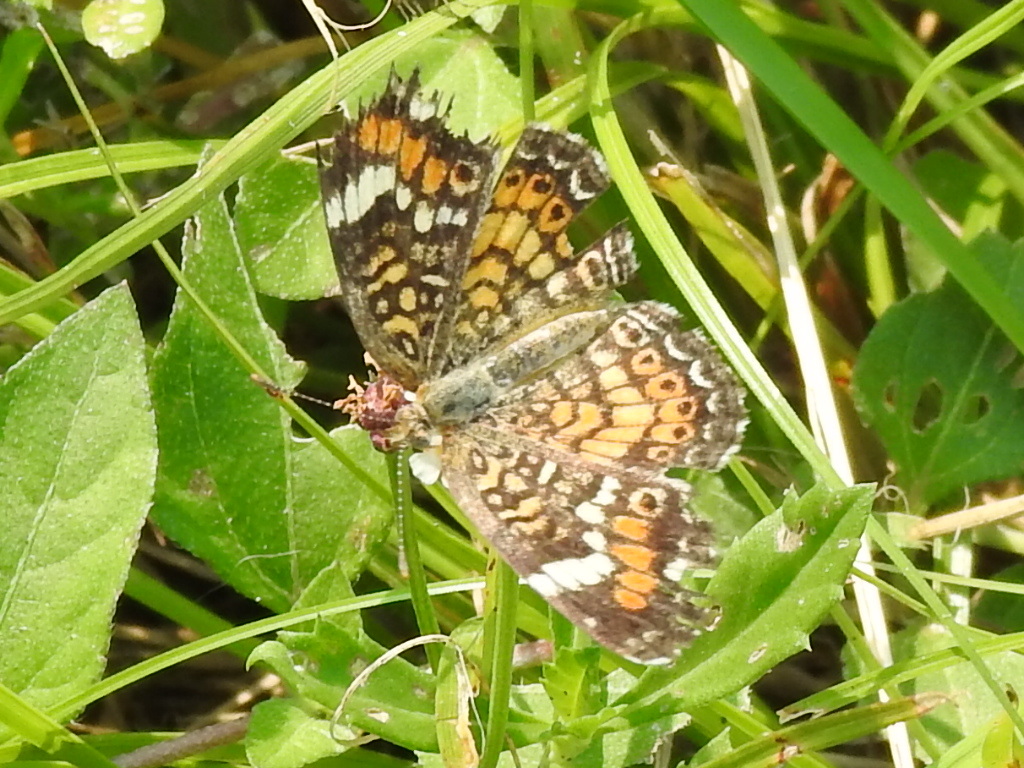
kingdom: Animalia
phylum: Arthropoda
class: Insecta
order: Lepidoptera
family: Nymphalidae
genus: Phyciodes
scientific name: Phyciodes phaon
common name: Phaon crescent
